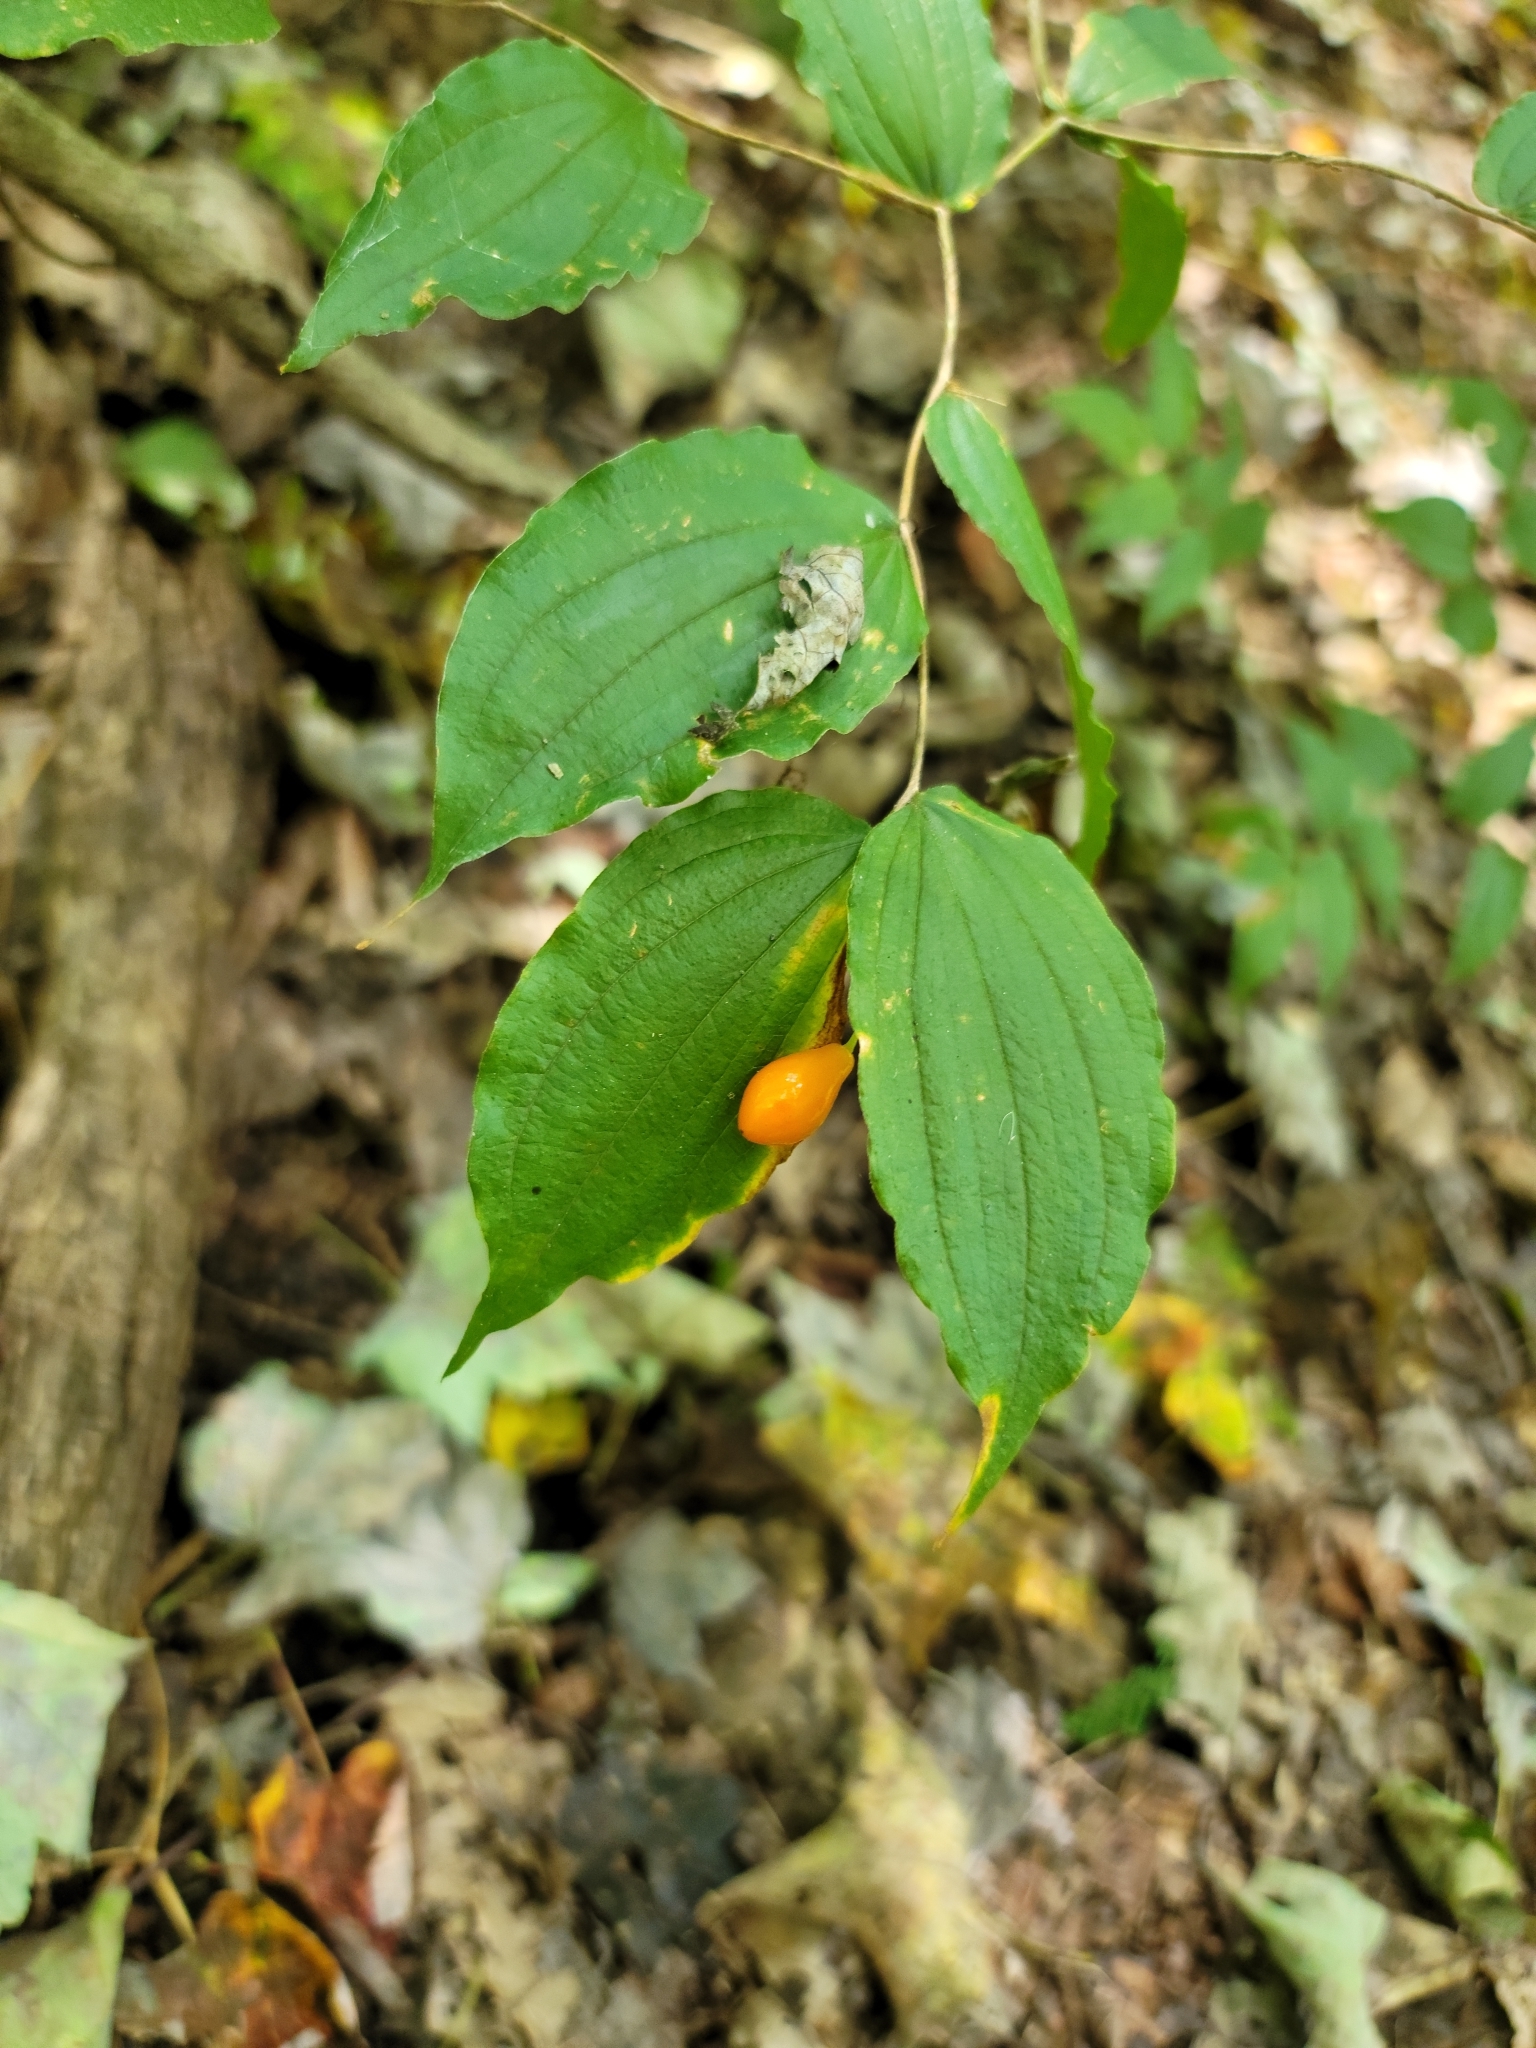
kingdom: Plantae
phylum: Tracheophyta
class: Liliopsida
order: Liliales
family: Liliaceae
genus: Prosartes
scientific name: Prosartes lanuginosa
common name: Hairy mandarin
